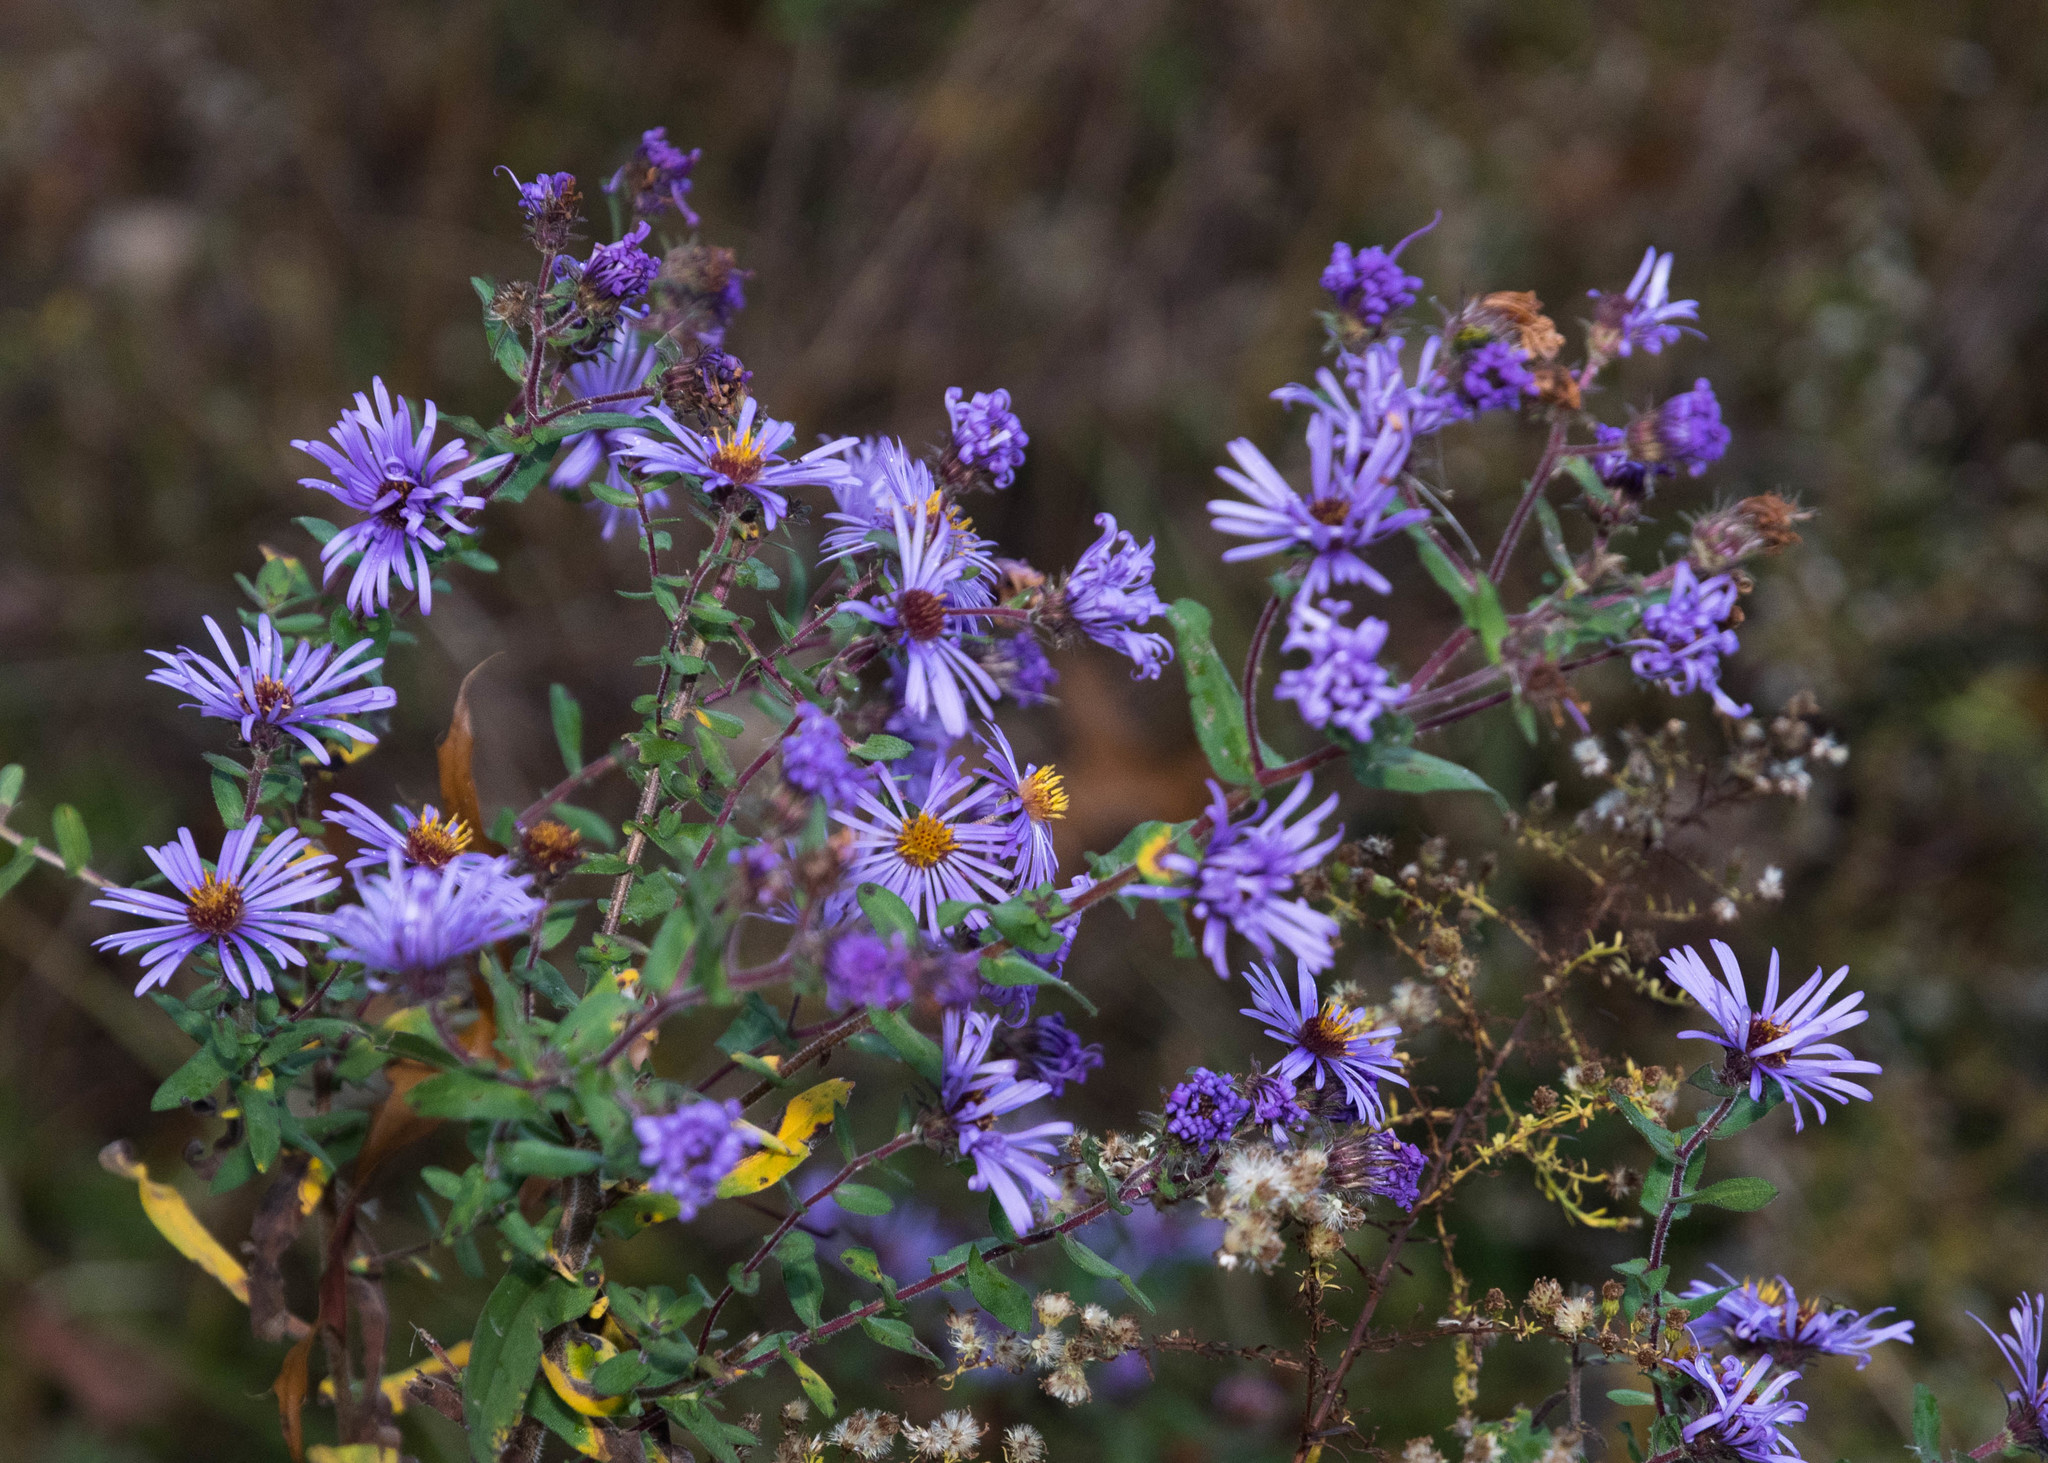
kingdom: Plantae
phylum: Tracheophyta
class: Magnoliopsida
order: Asterales
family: Asteraceae
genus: Symphyotrichum
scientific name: Symphyotrichum novae-angliae
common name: Michaelmas daisy
